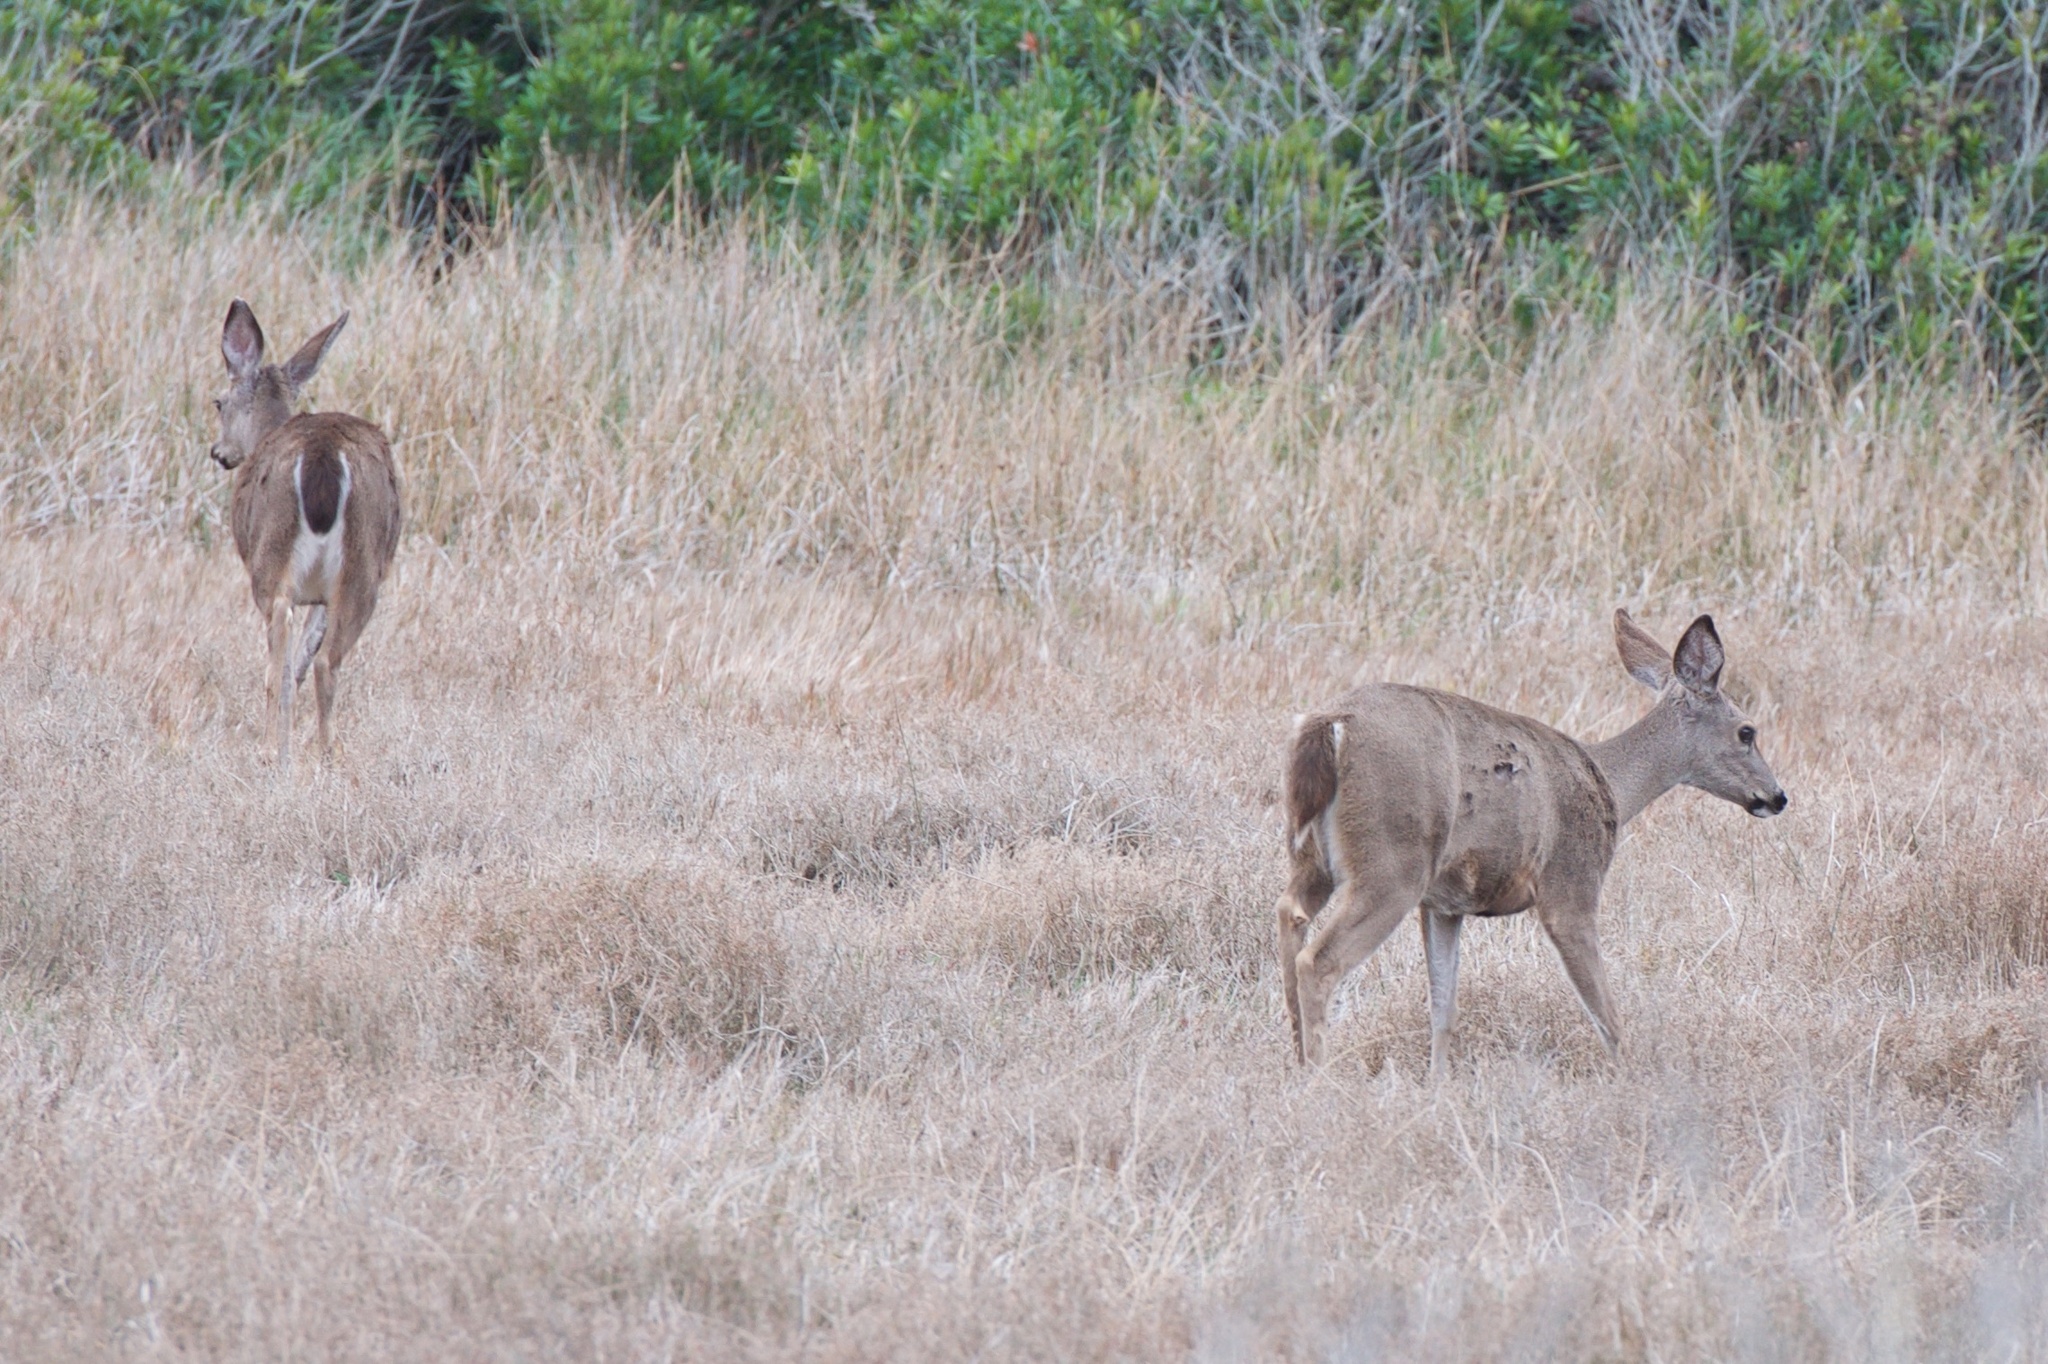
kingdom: Animalia
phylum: Chordata
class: Mammalia
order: Artiodactyla
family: Cervidae
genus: Odocoileus
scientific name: Odocoileus hemionus
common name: Mule deer
